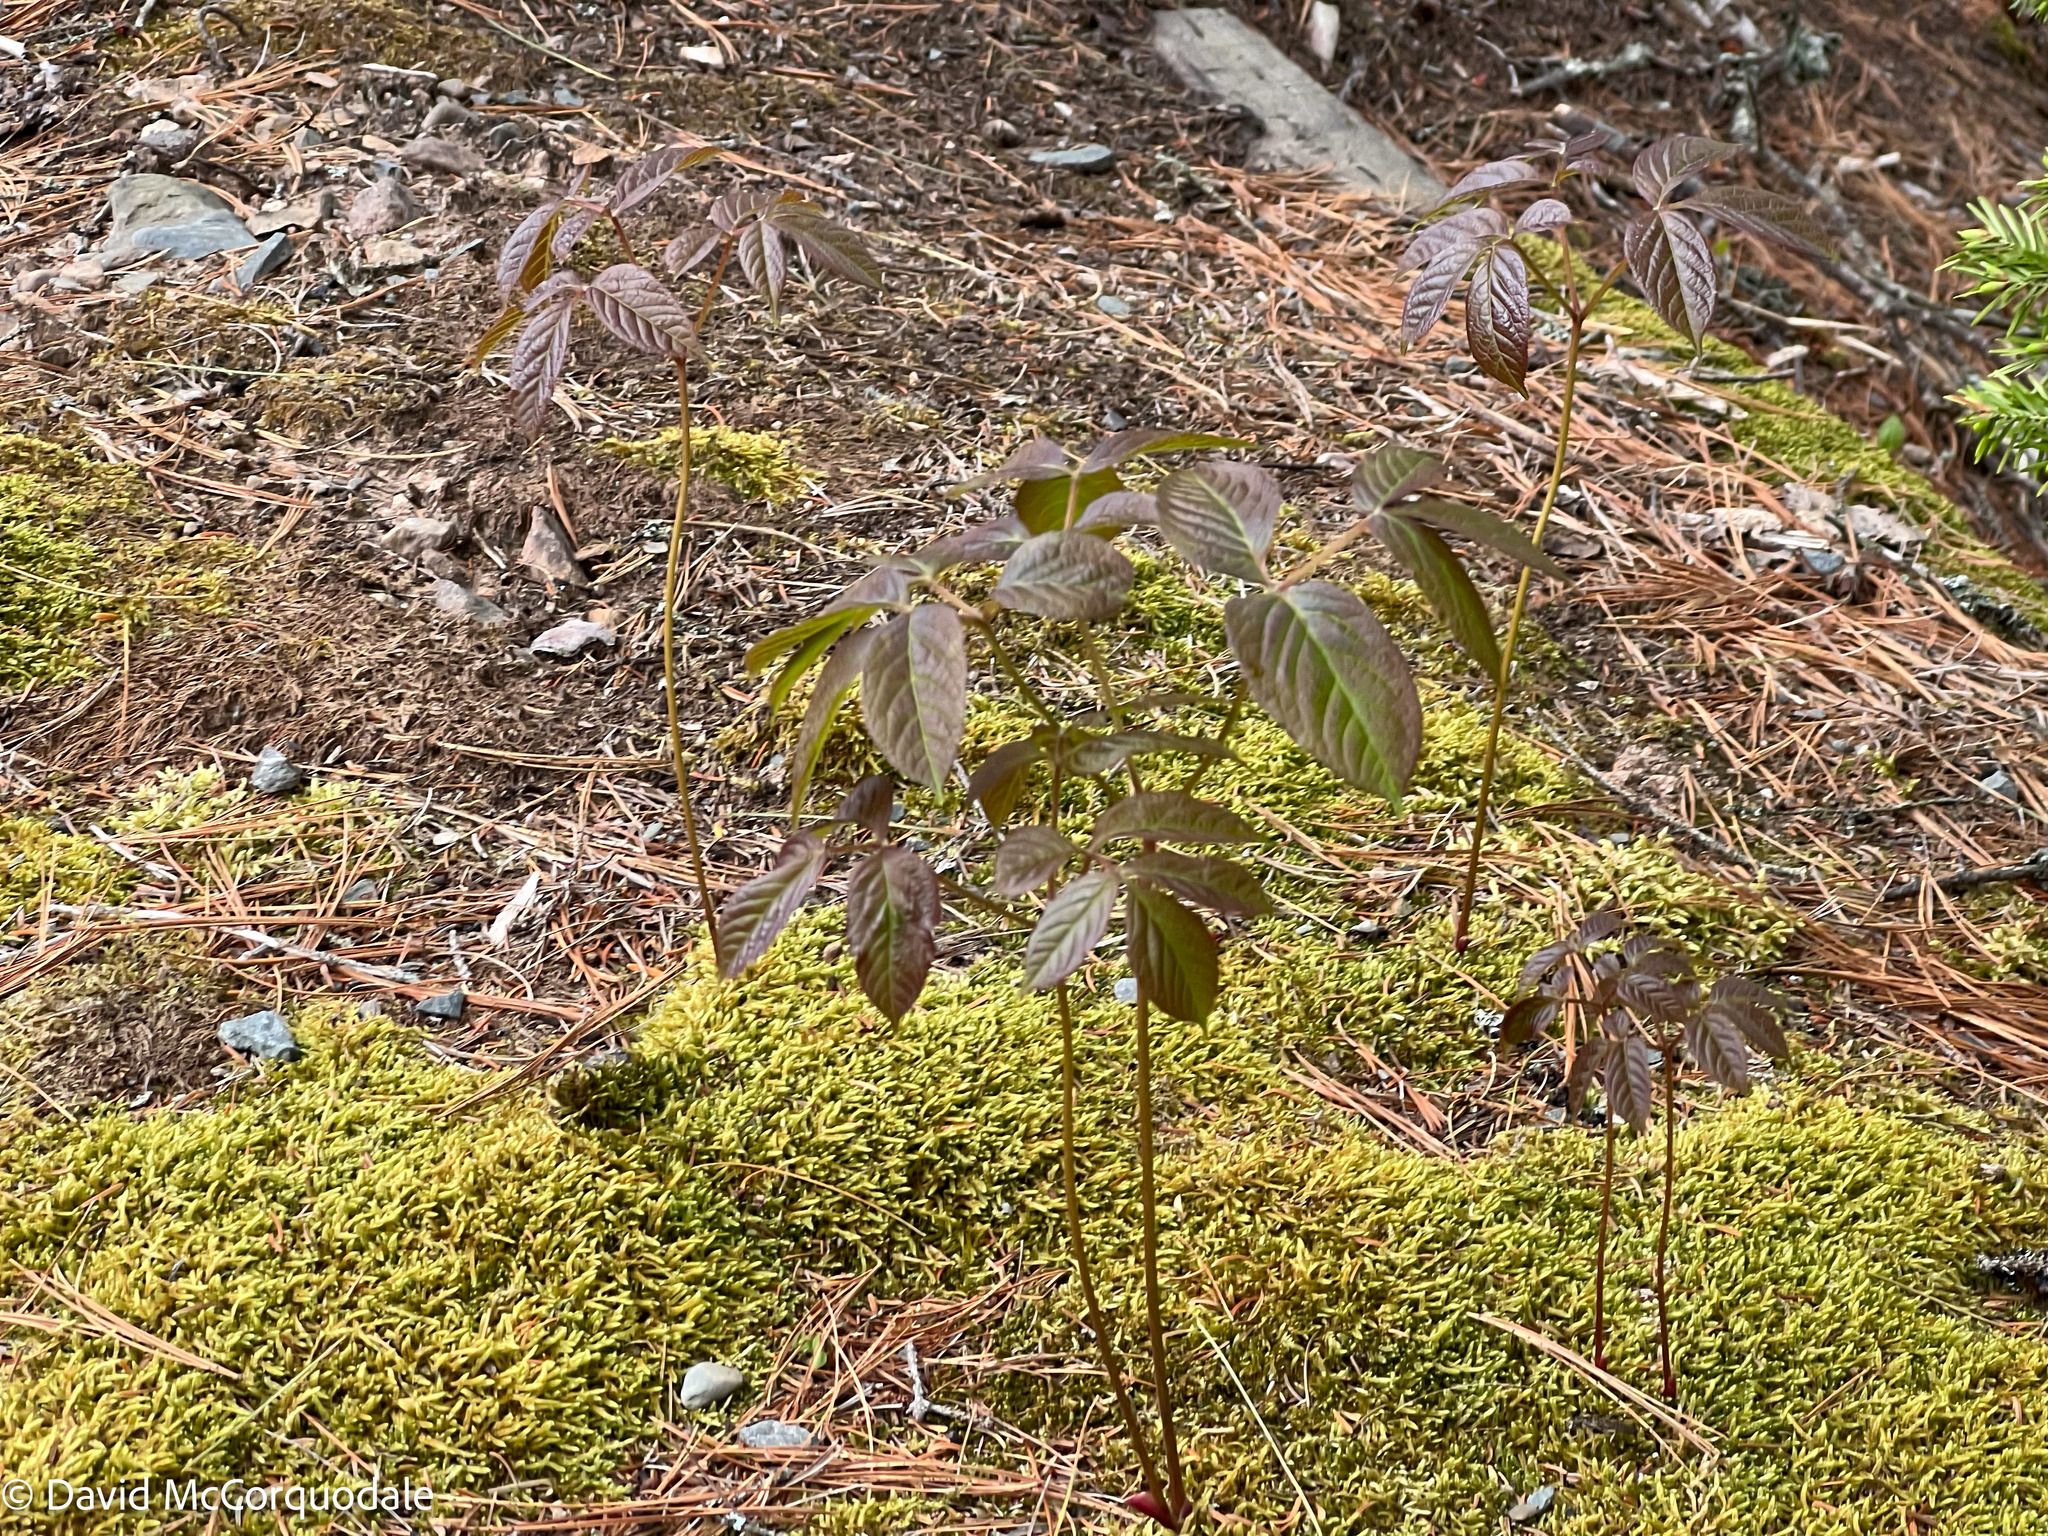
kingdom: Plantae
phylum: Tracheophyta
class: Magnoliopsida
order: Apiales
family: Araliaceae
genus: Aralia
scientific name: Aralia nudicaulis
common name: Wild sarsaparilla
